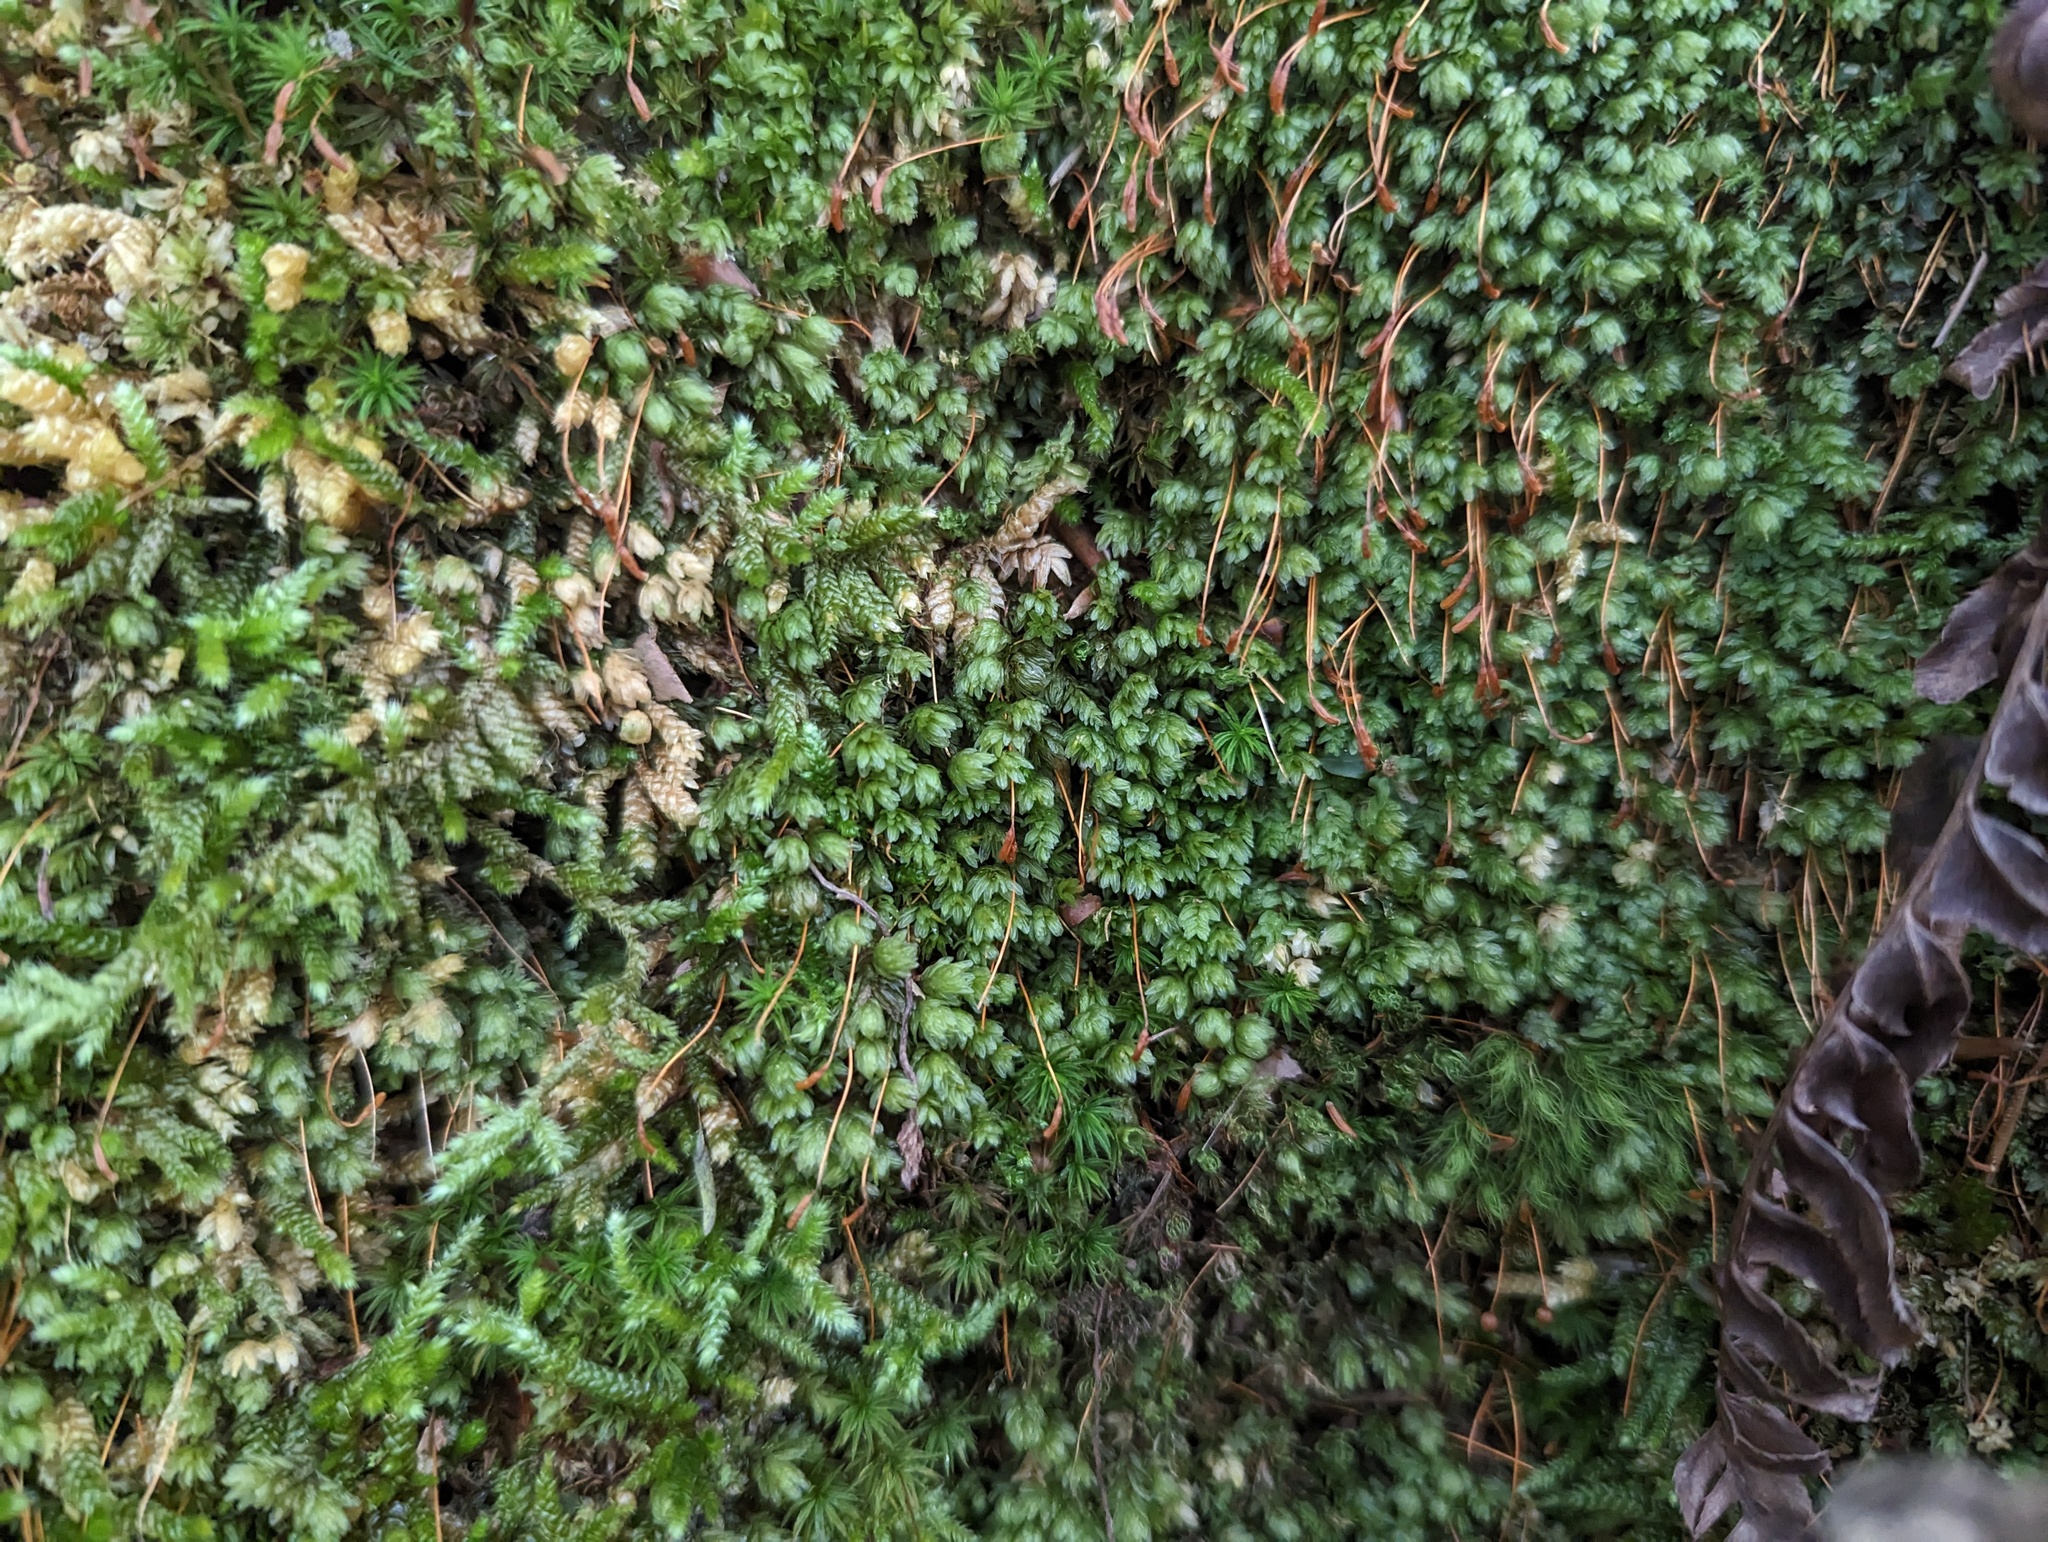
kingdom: Plantae
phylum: Bryophyta
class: Bryopsida
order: Aulacomniales
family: Aulacomniaceae
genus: Aulacomnium
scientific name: Aulacomnium heterostichum
